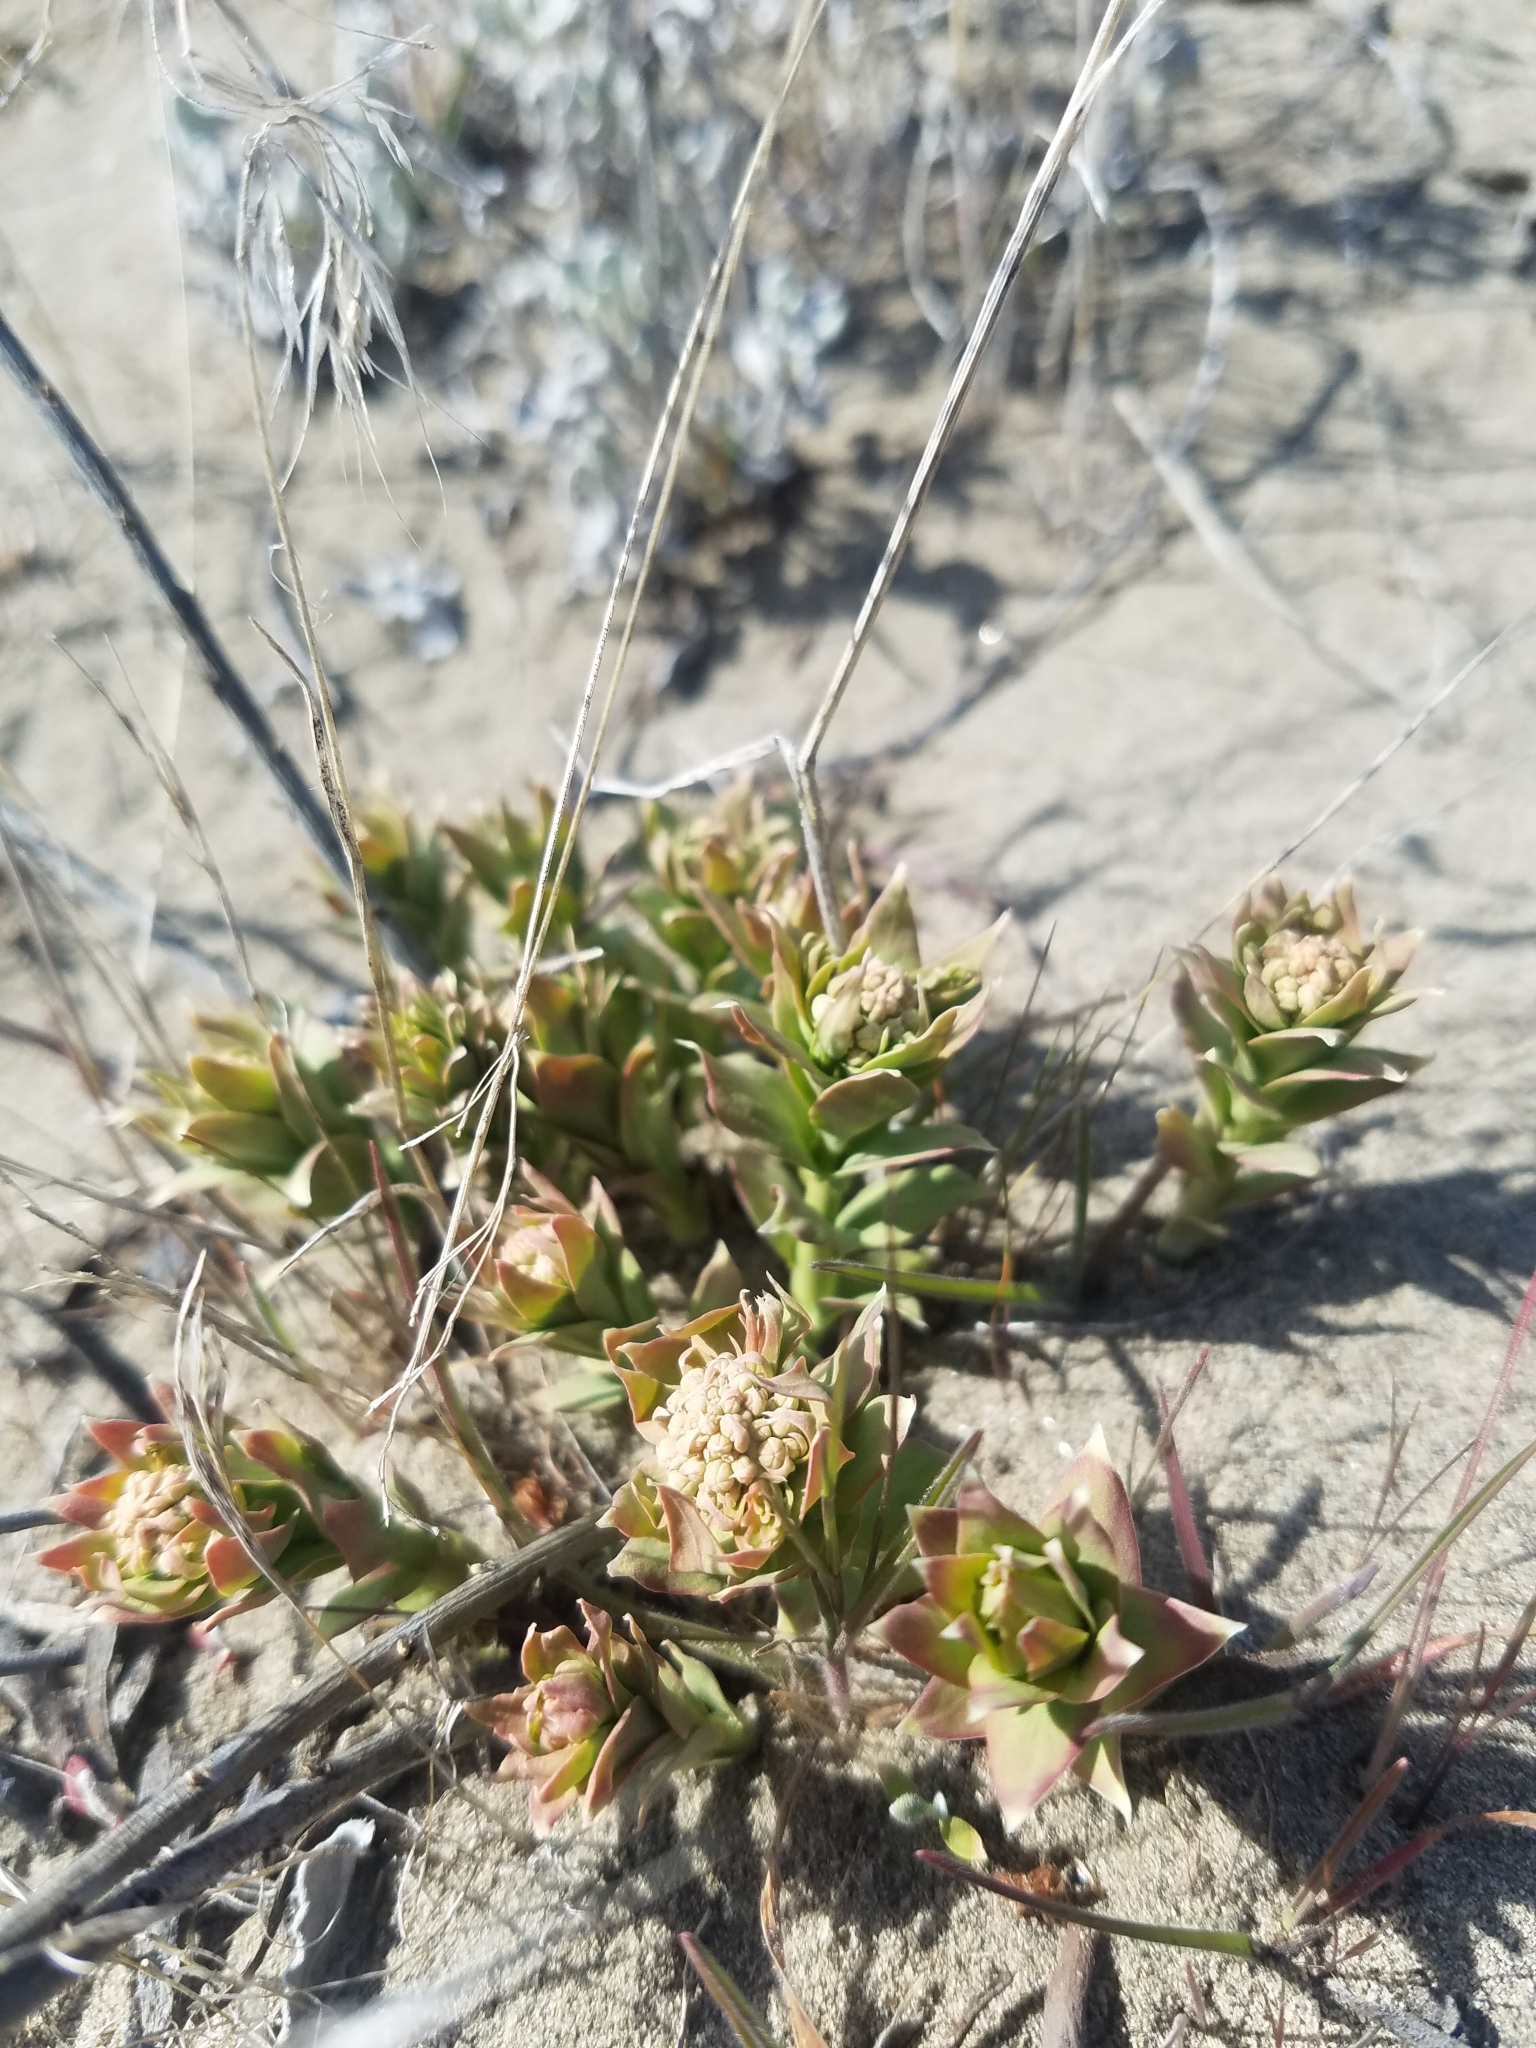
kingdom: Plantae
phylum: Tracheophyta
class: Magnoliopsida
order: Santalales
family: Comandraceae
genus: Comandra
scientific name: Comandra umbellata
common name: Bastard toadflax
